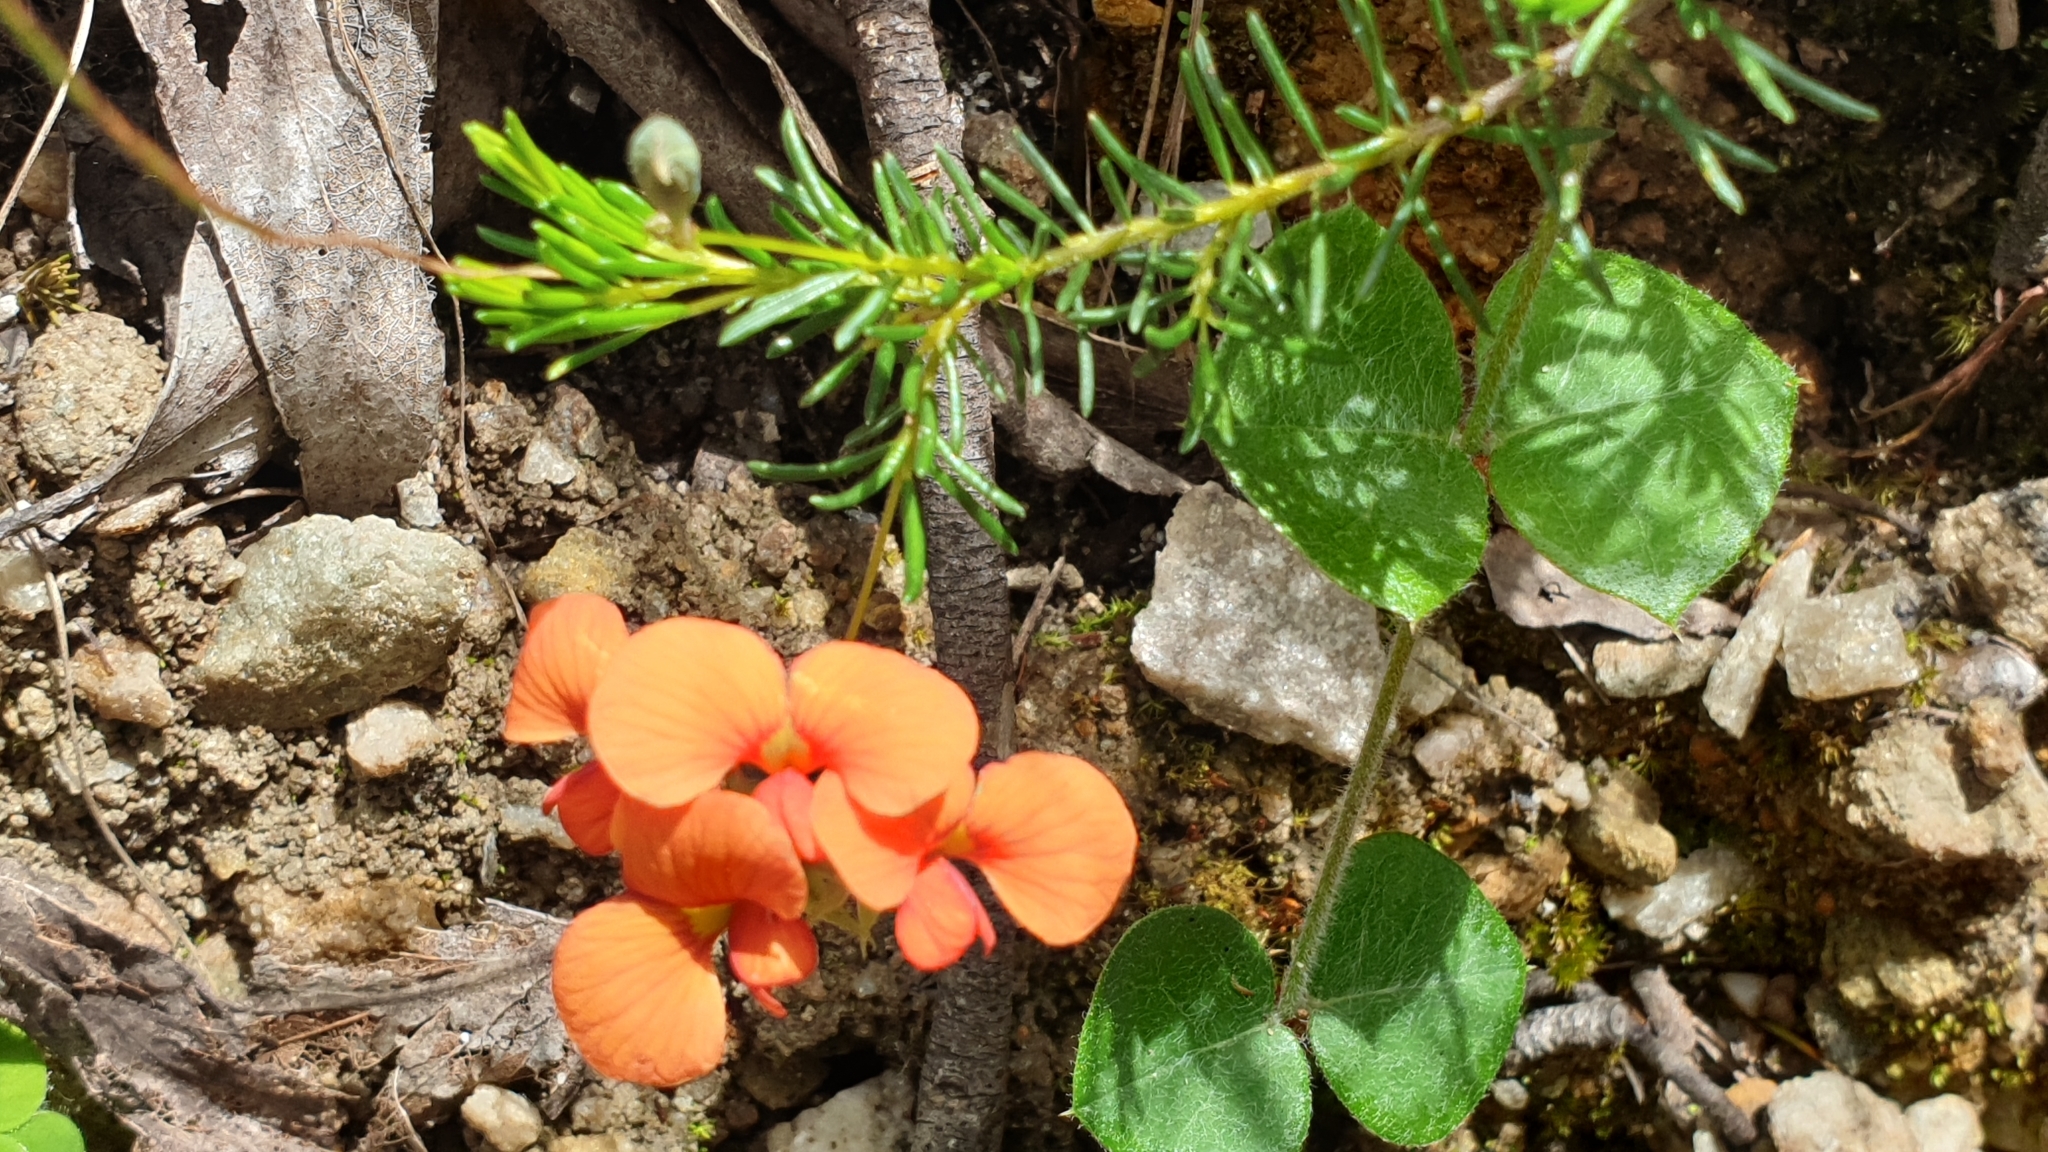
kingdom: Plantae
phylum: Tracheophyta
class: Magnoliopsida
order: Fabales
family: Fabaceae
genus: Dillwynia
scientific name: Dillwynia hispida
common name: Red parrot-pea
